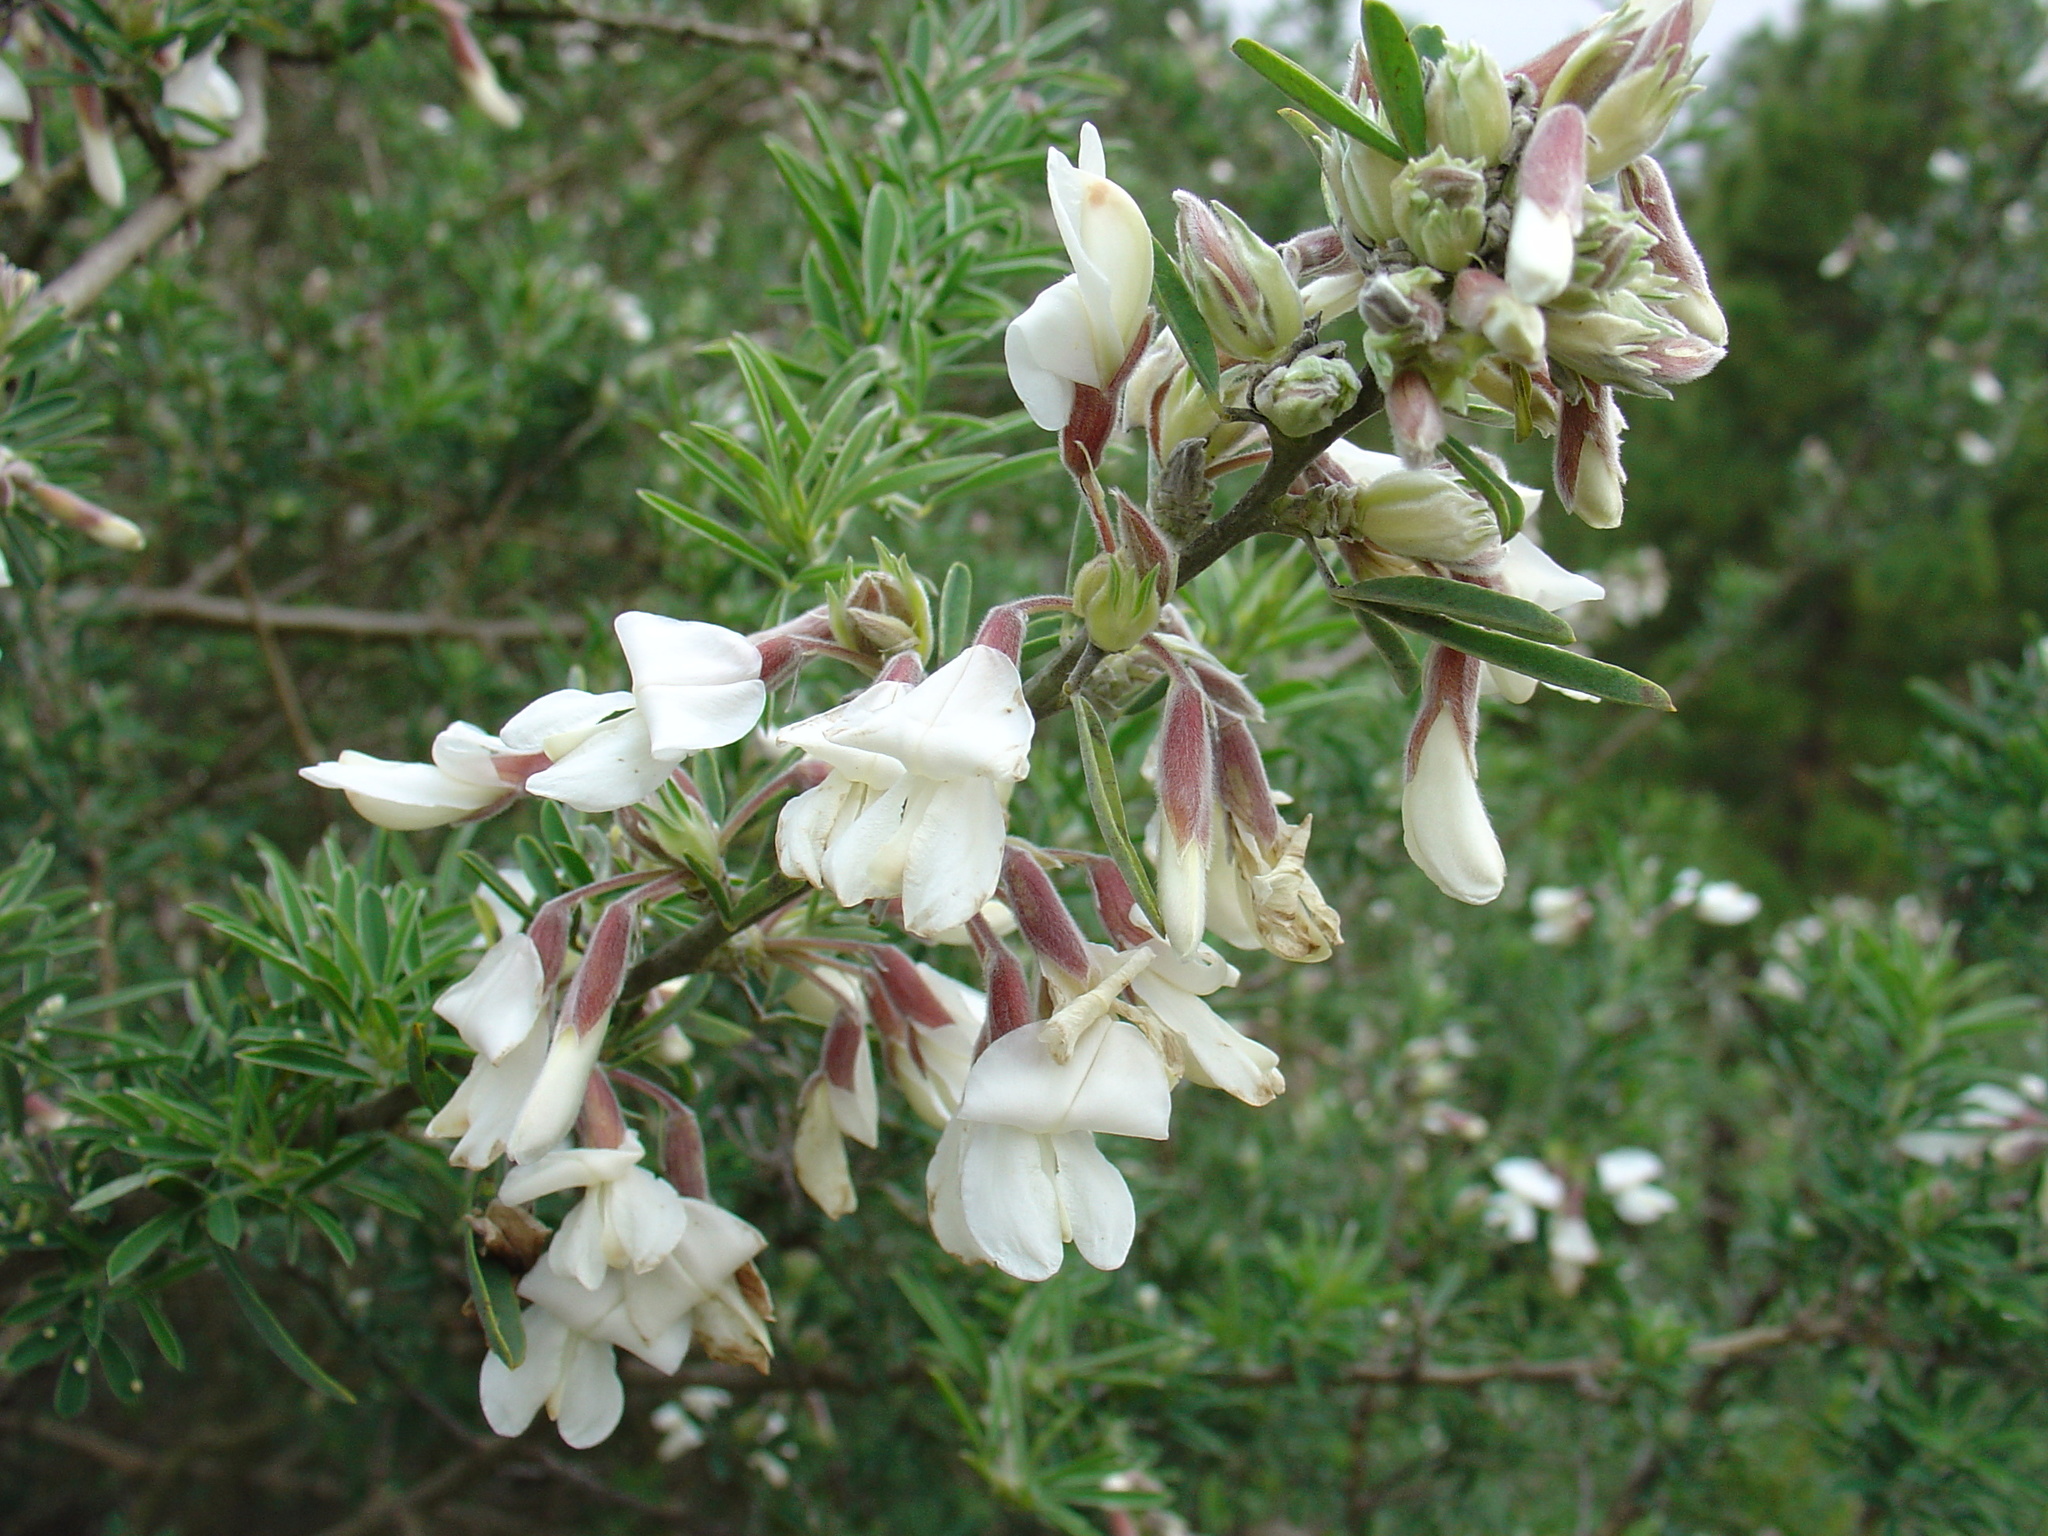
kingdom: Plantae
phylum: Tracheophyta
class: Magnoliopsida
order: Fabales
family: Fabaceae
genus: Chamaecytisus
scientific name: Chamaecytisus prolifer
